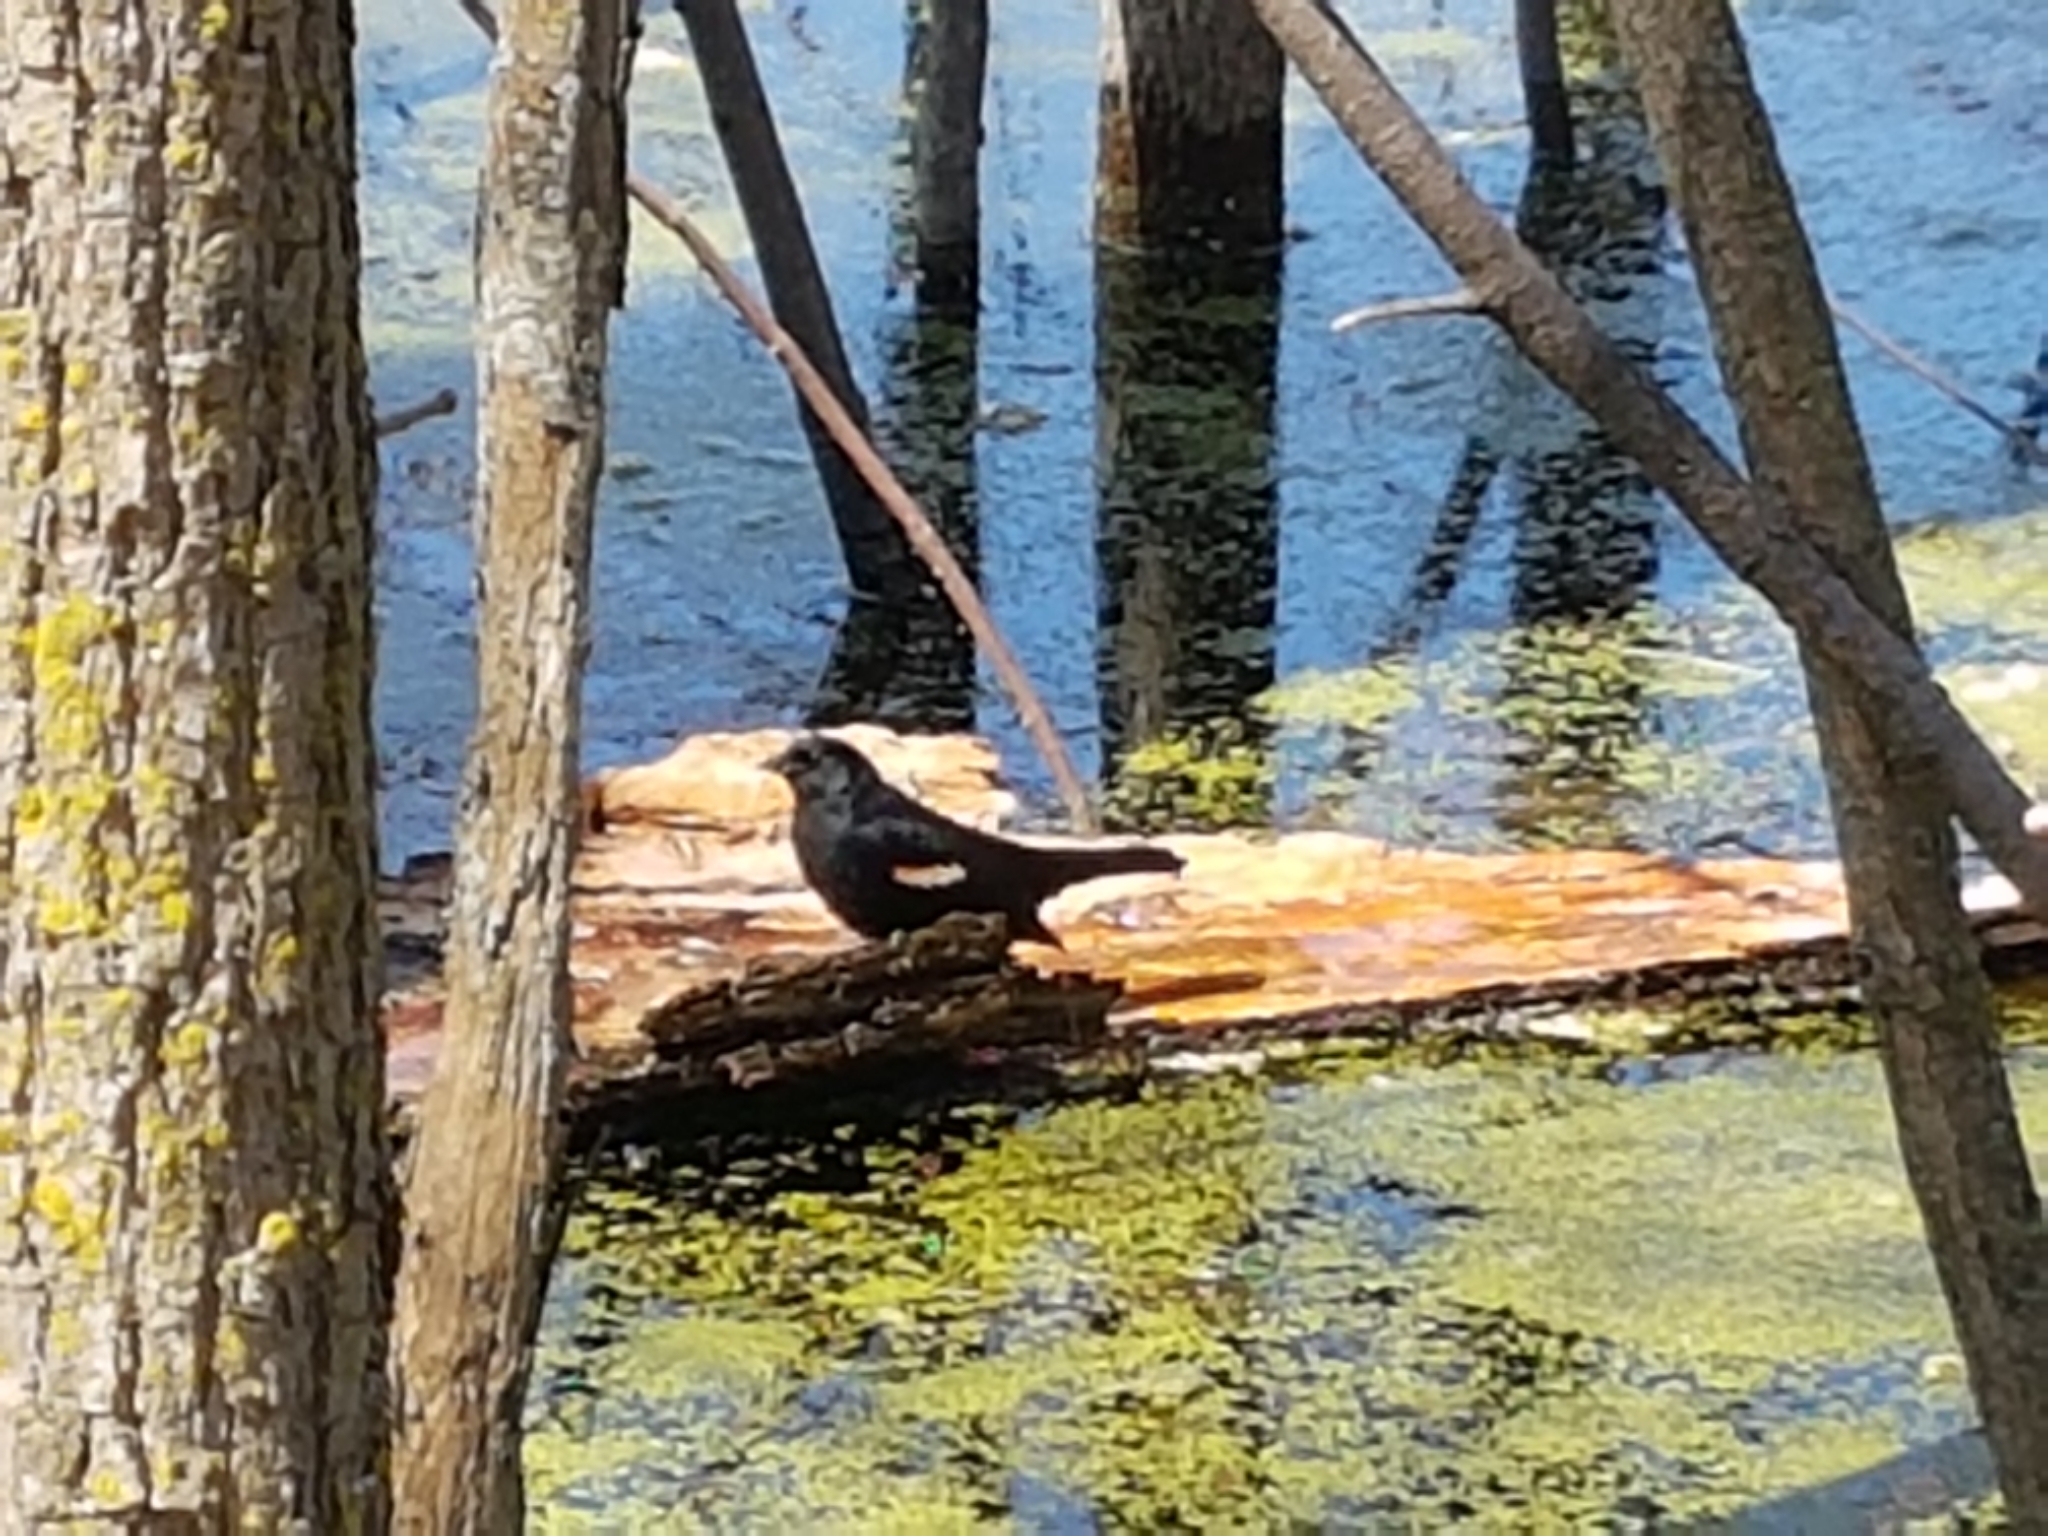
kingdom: Animalia
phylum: Chordata
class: Aves
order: Passeriformes
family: Icteridae
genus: Agelaius
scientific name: Agelaius phoeniceus
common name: Red-winged blackbird
